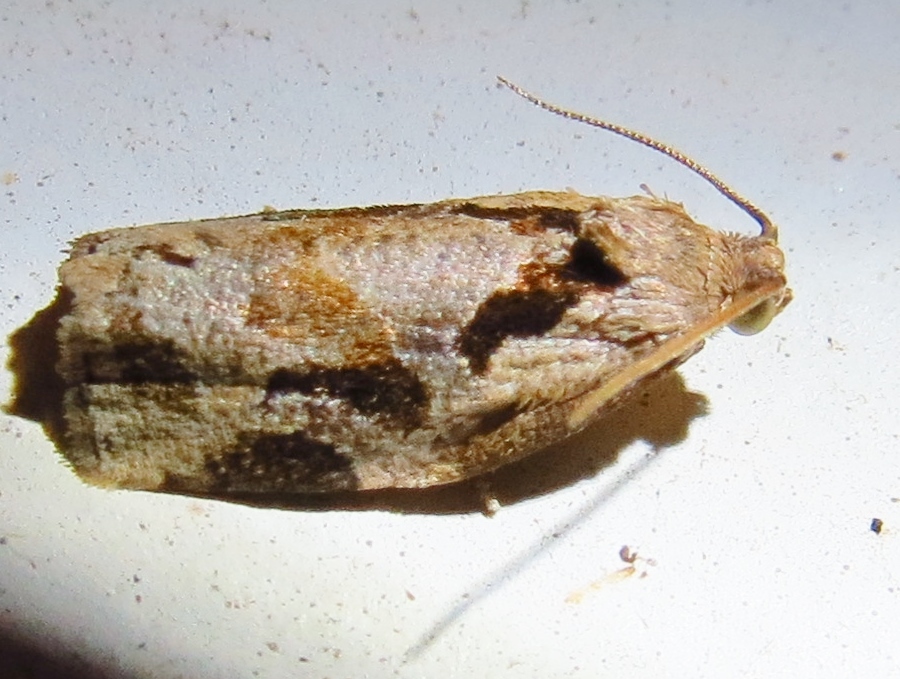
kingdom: Animalia
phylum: Arthropoda
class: Insecta
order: Lepidoptera
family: Tortricidae
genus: Archips
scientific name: Archips grisea
